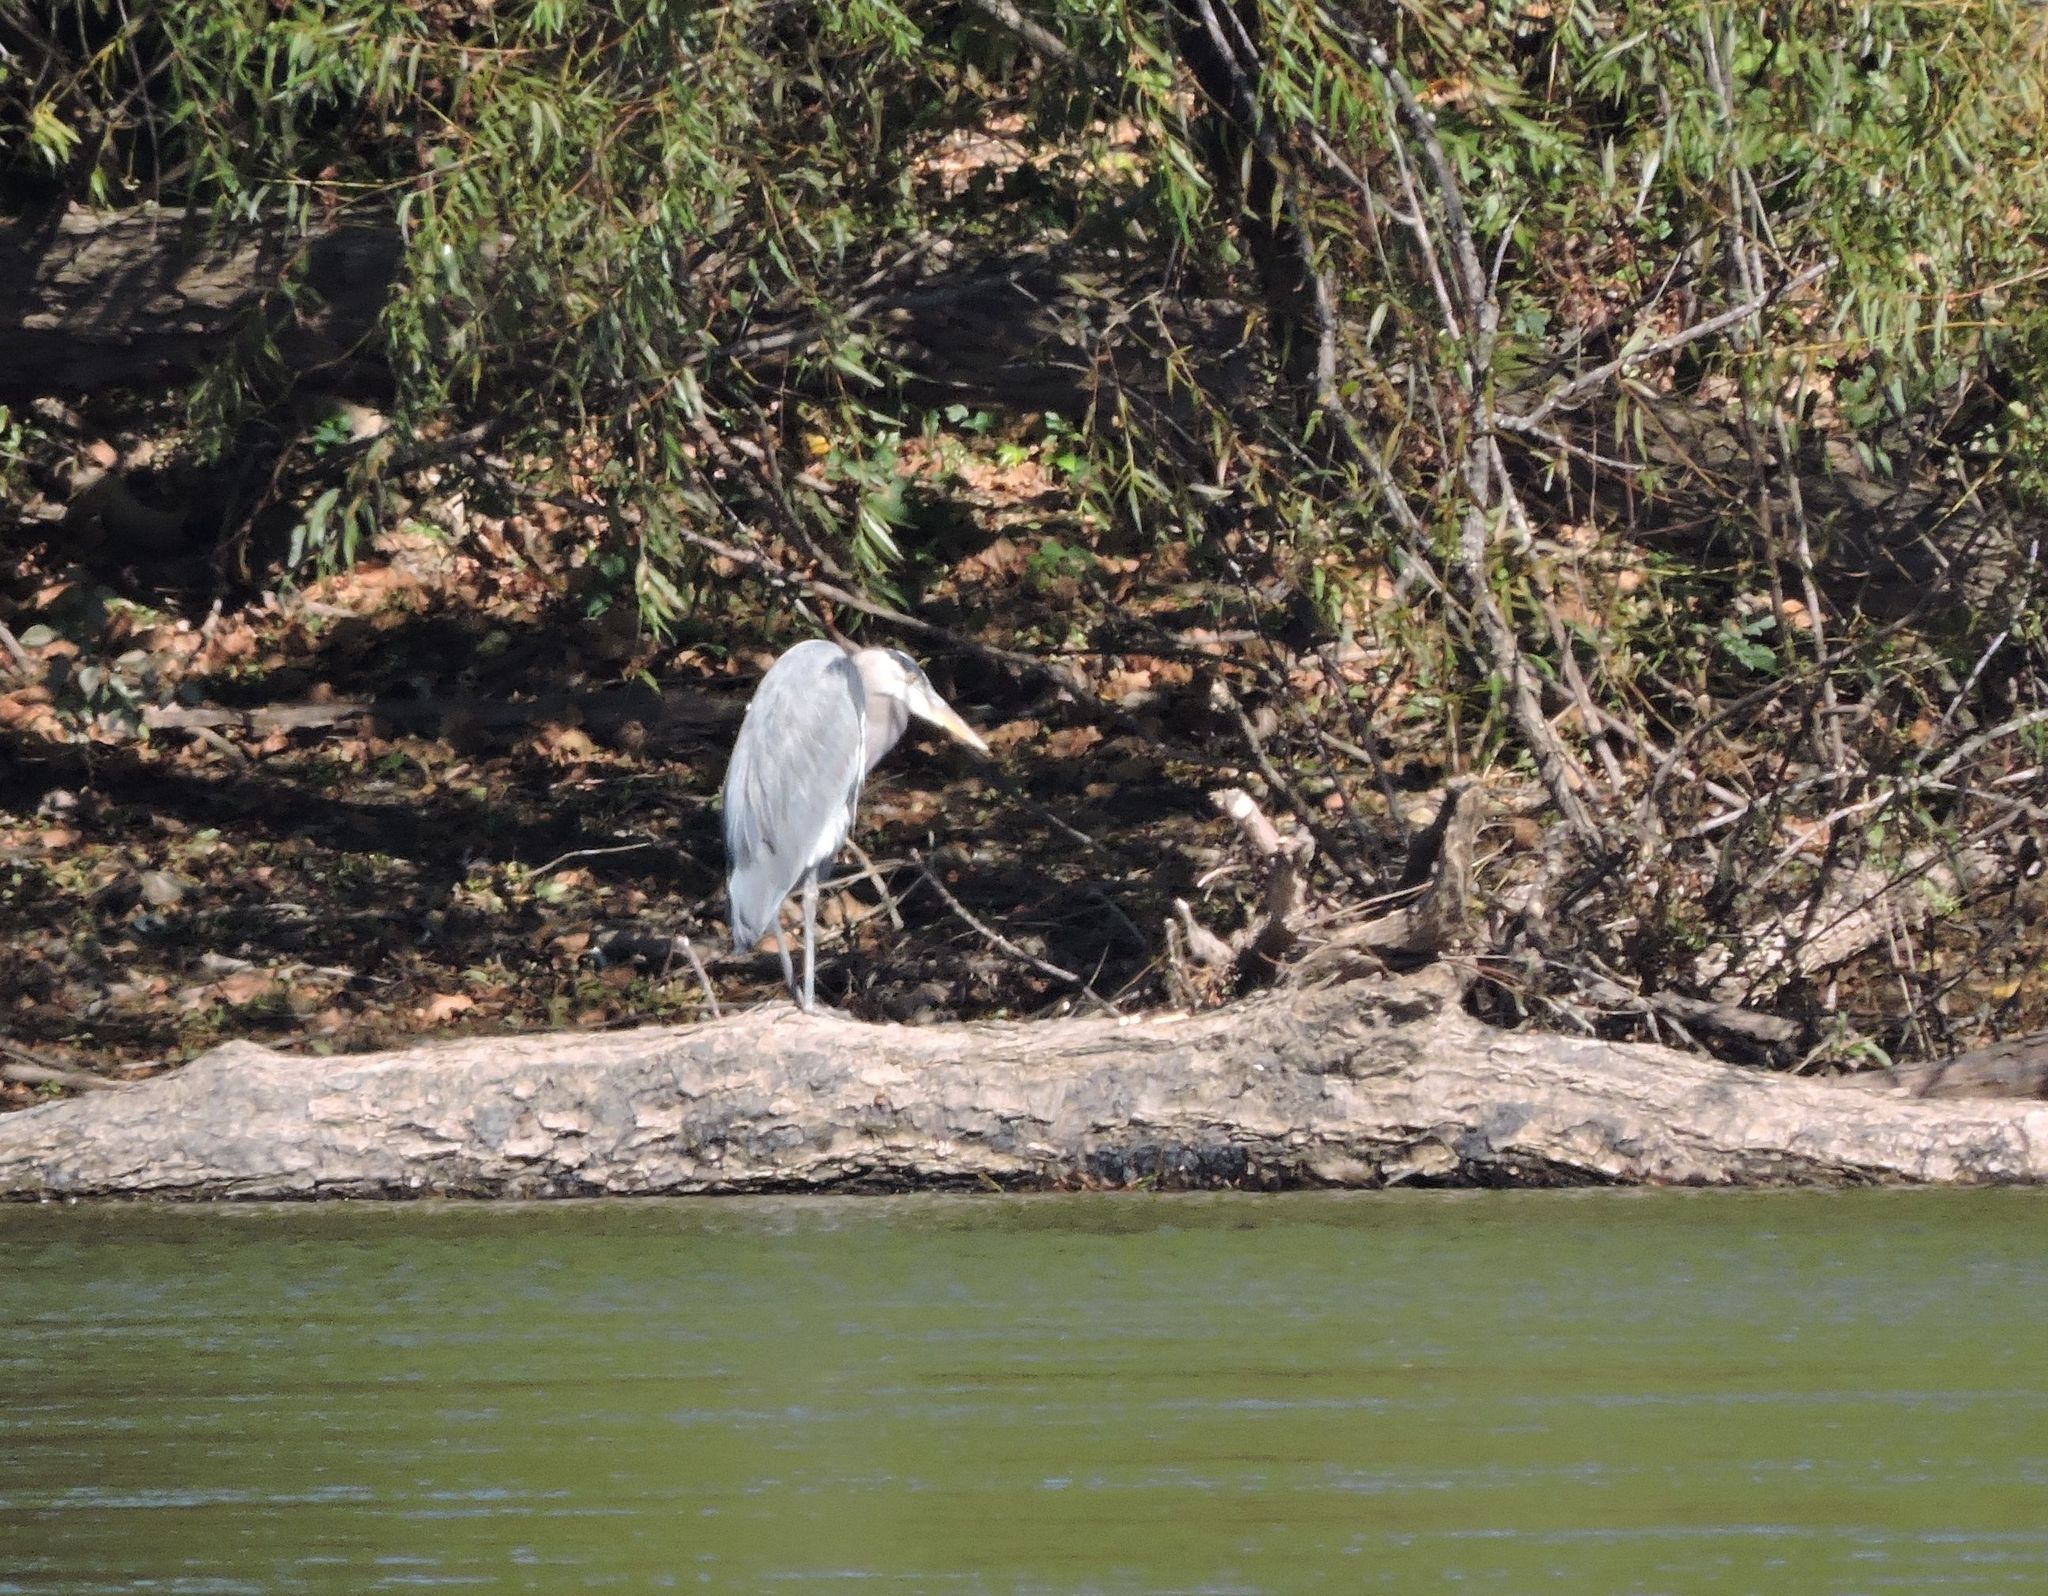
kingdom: Animalia
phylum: Chordata
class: Aves
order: Pelecaniformes
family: Ardeidae
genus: Ardea
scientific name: Ardea herodias
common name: Great blue heron
